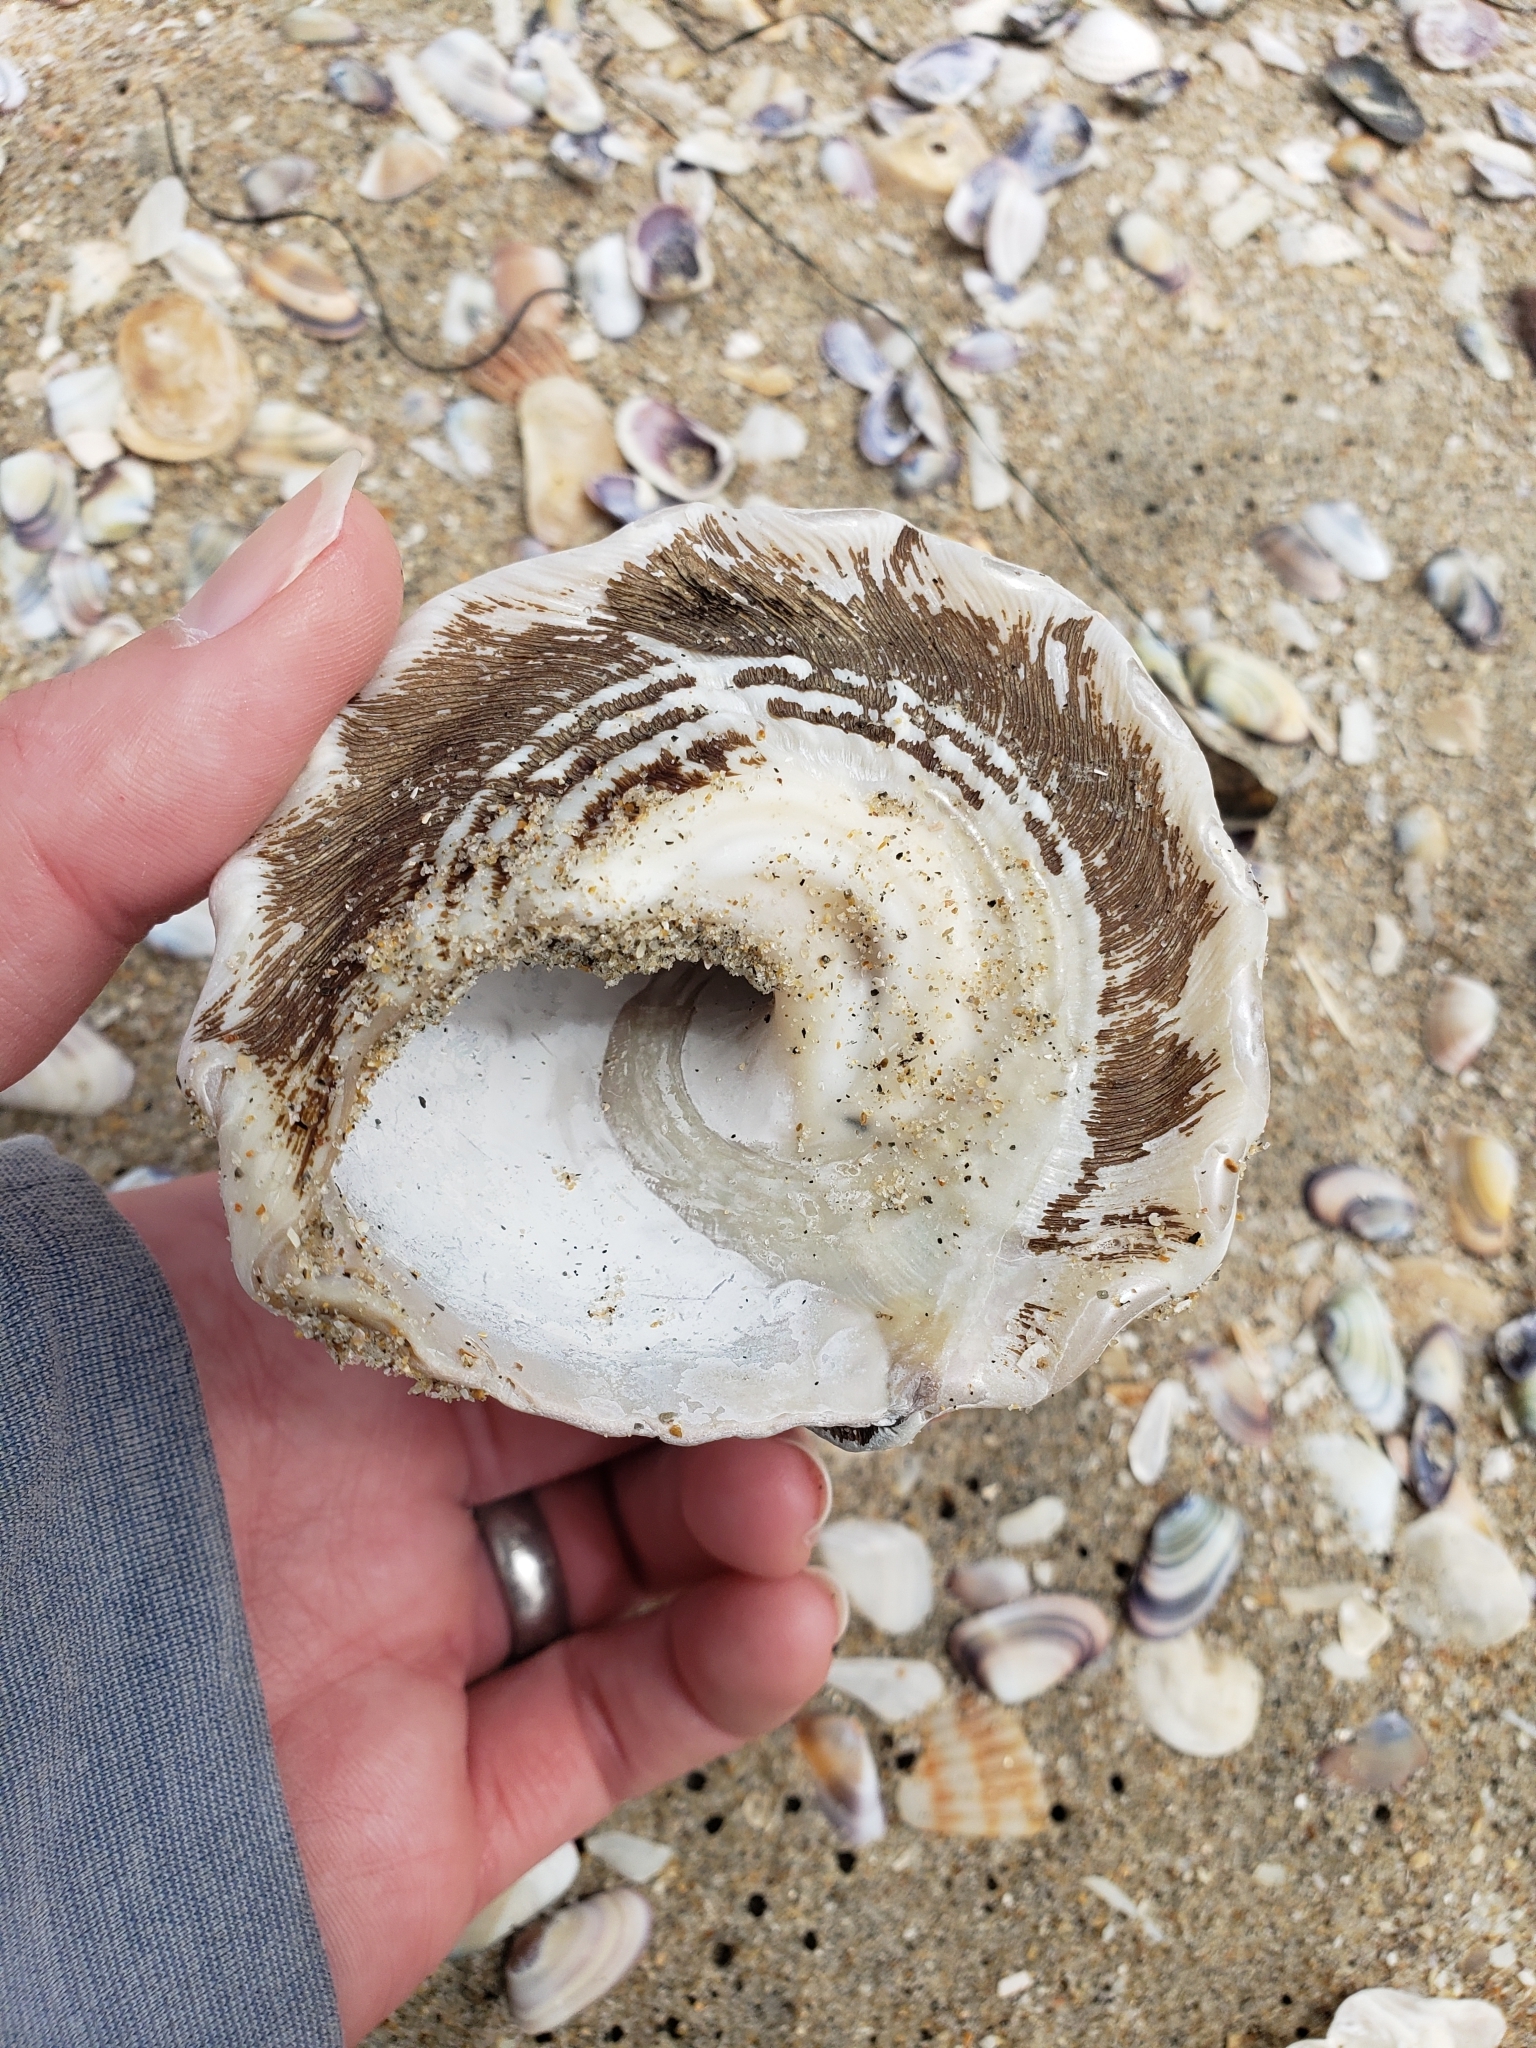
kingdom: Animalia
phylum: Mollusca
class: Gastropoda
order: Trochida
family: Turbinidae
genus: Megastraea
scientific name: Megastraea undosa
